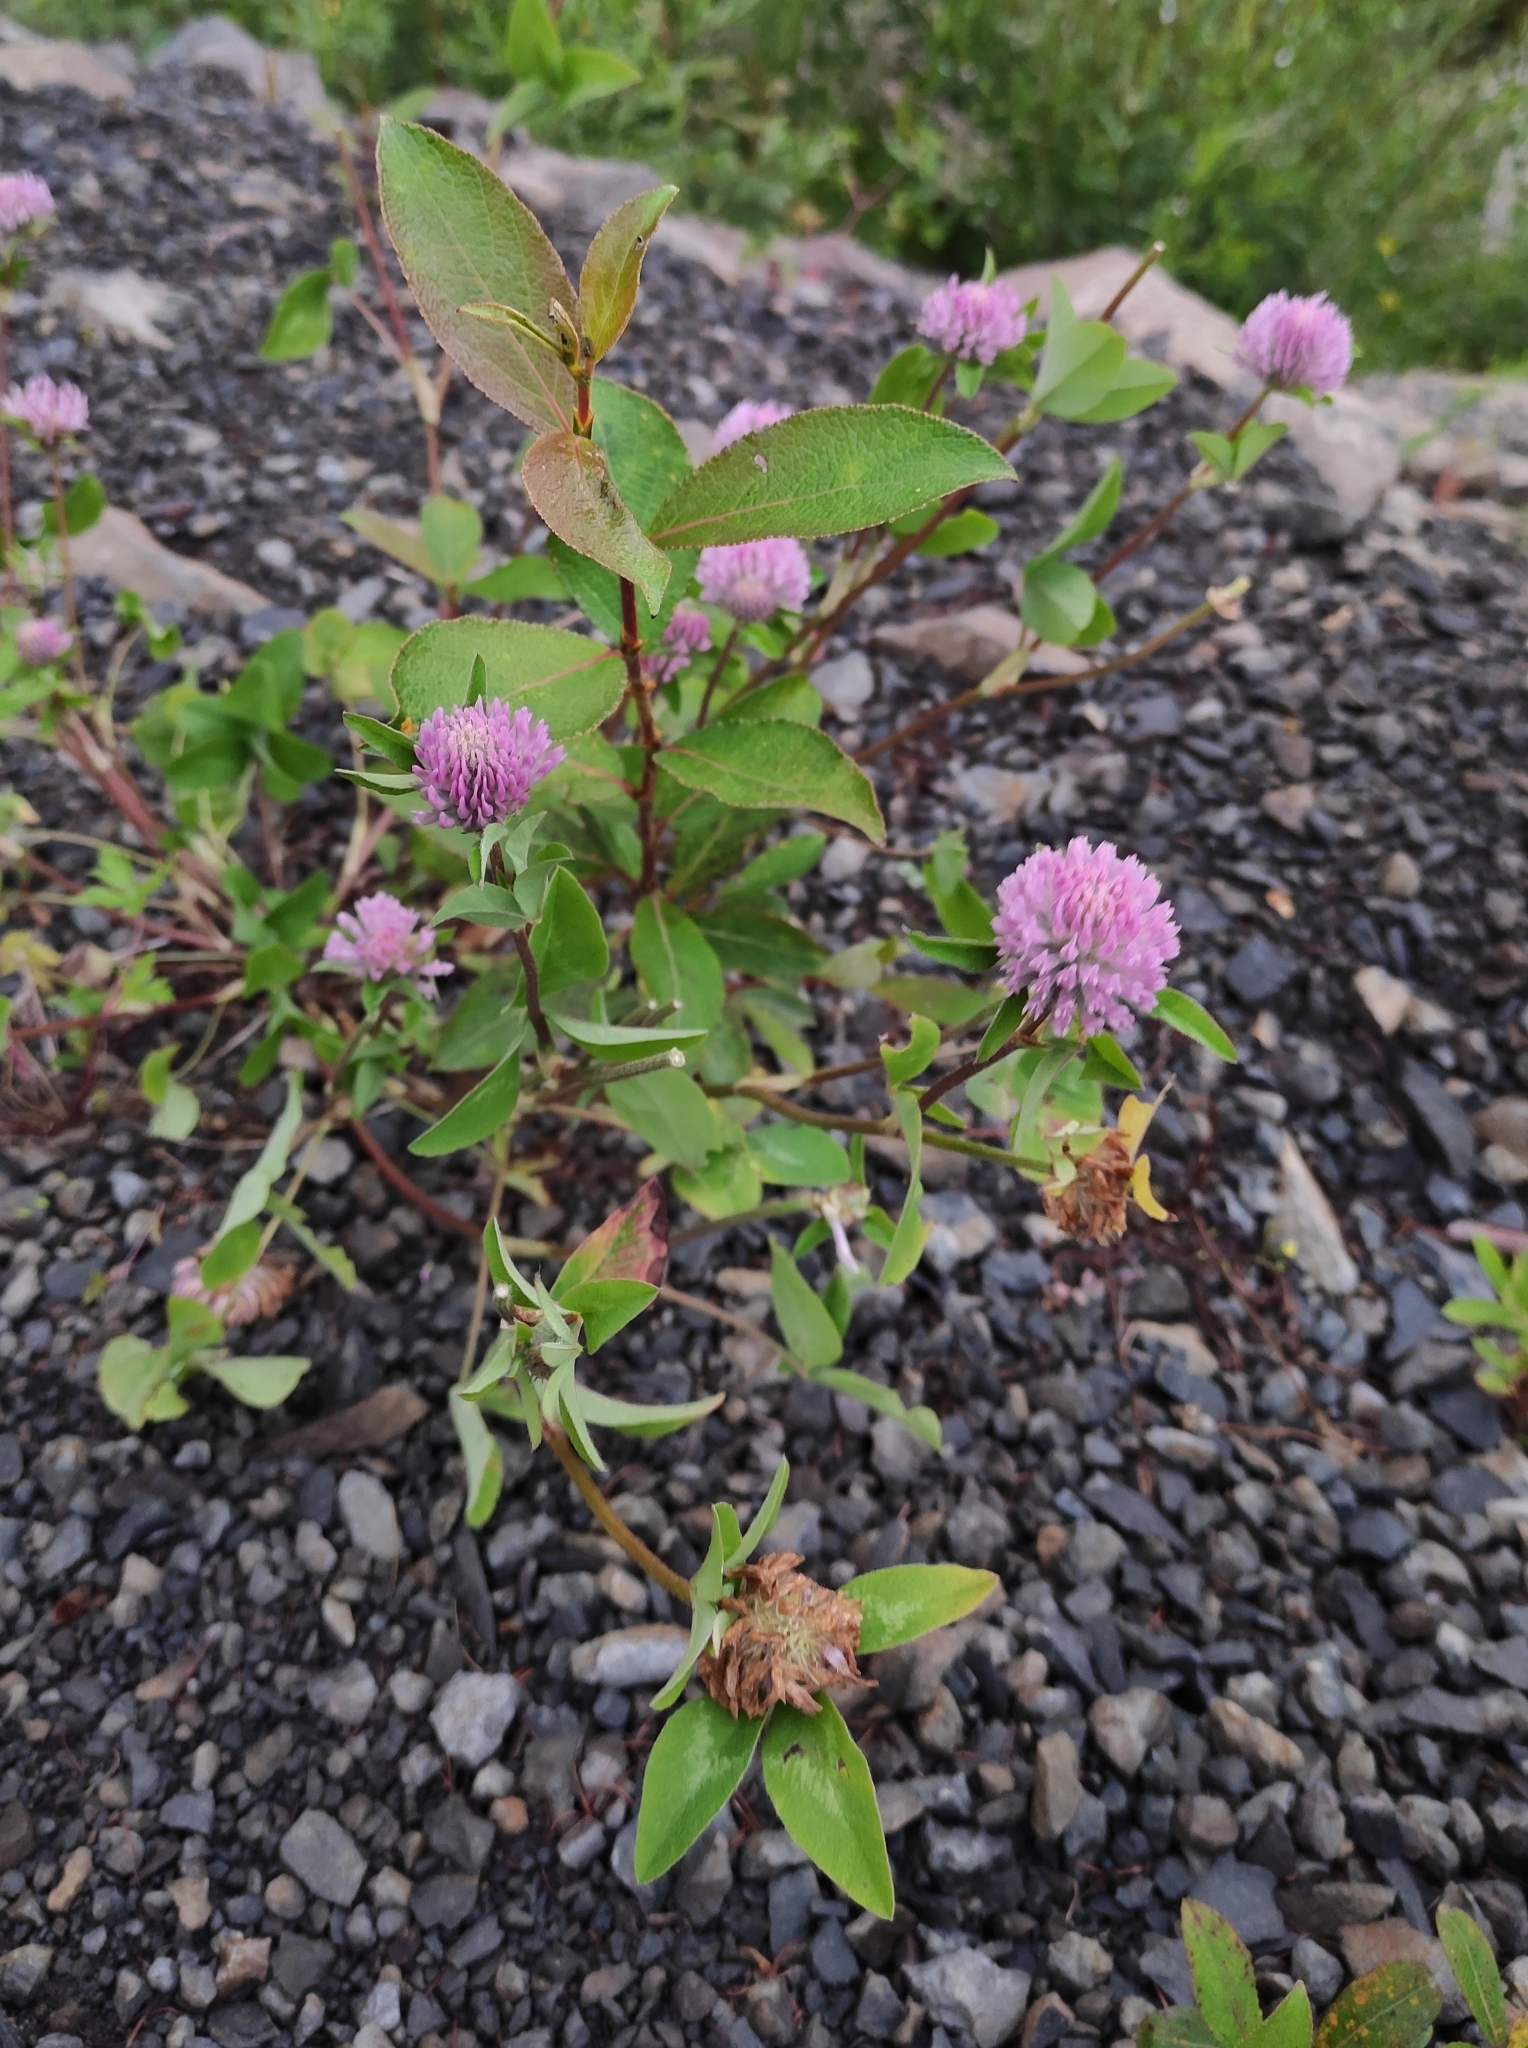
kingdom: Plantae
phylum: Tracheophyta
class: Magnoliopsida
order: Fabales
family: Fabaceae
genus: Trifolium
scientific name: Trifolium pratense
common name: Red clover
